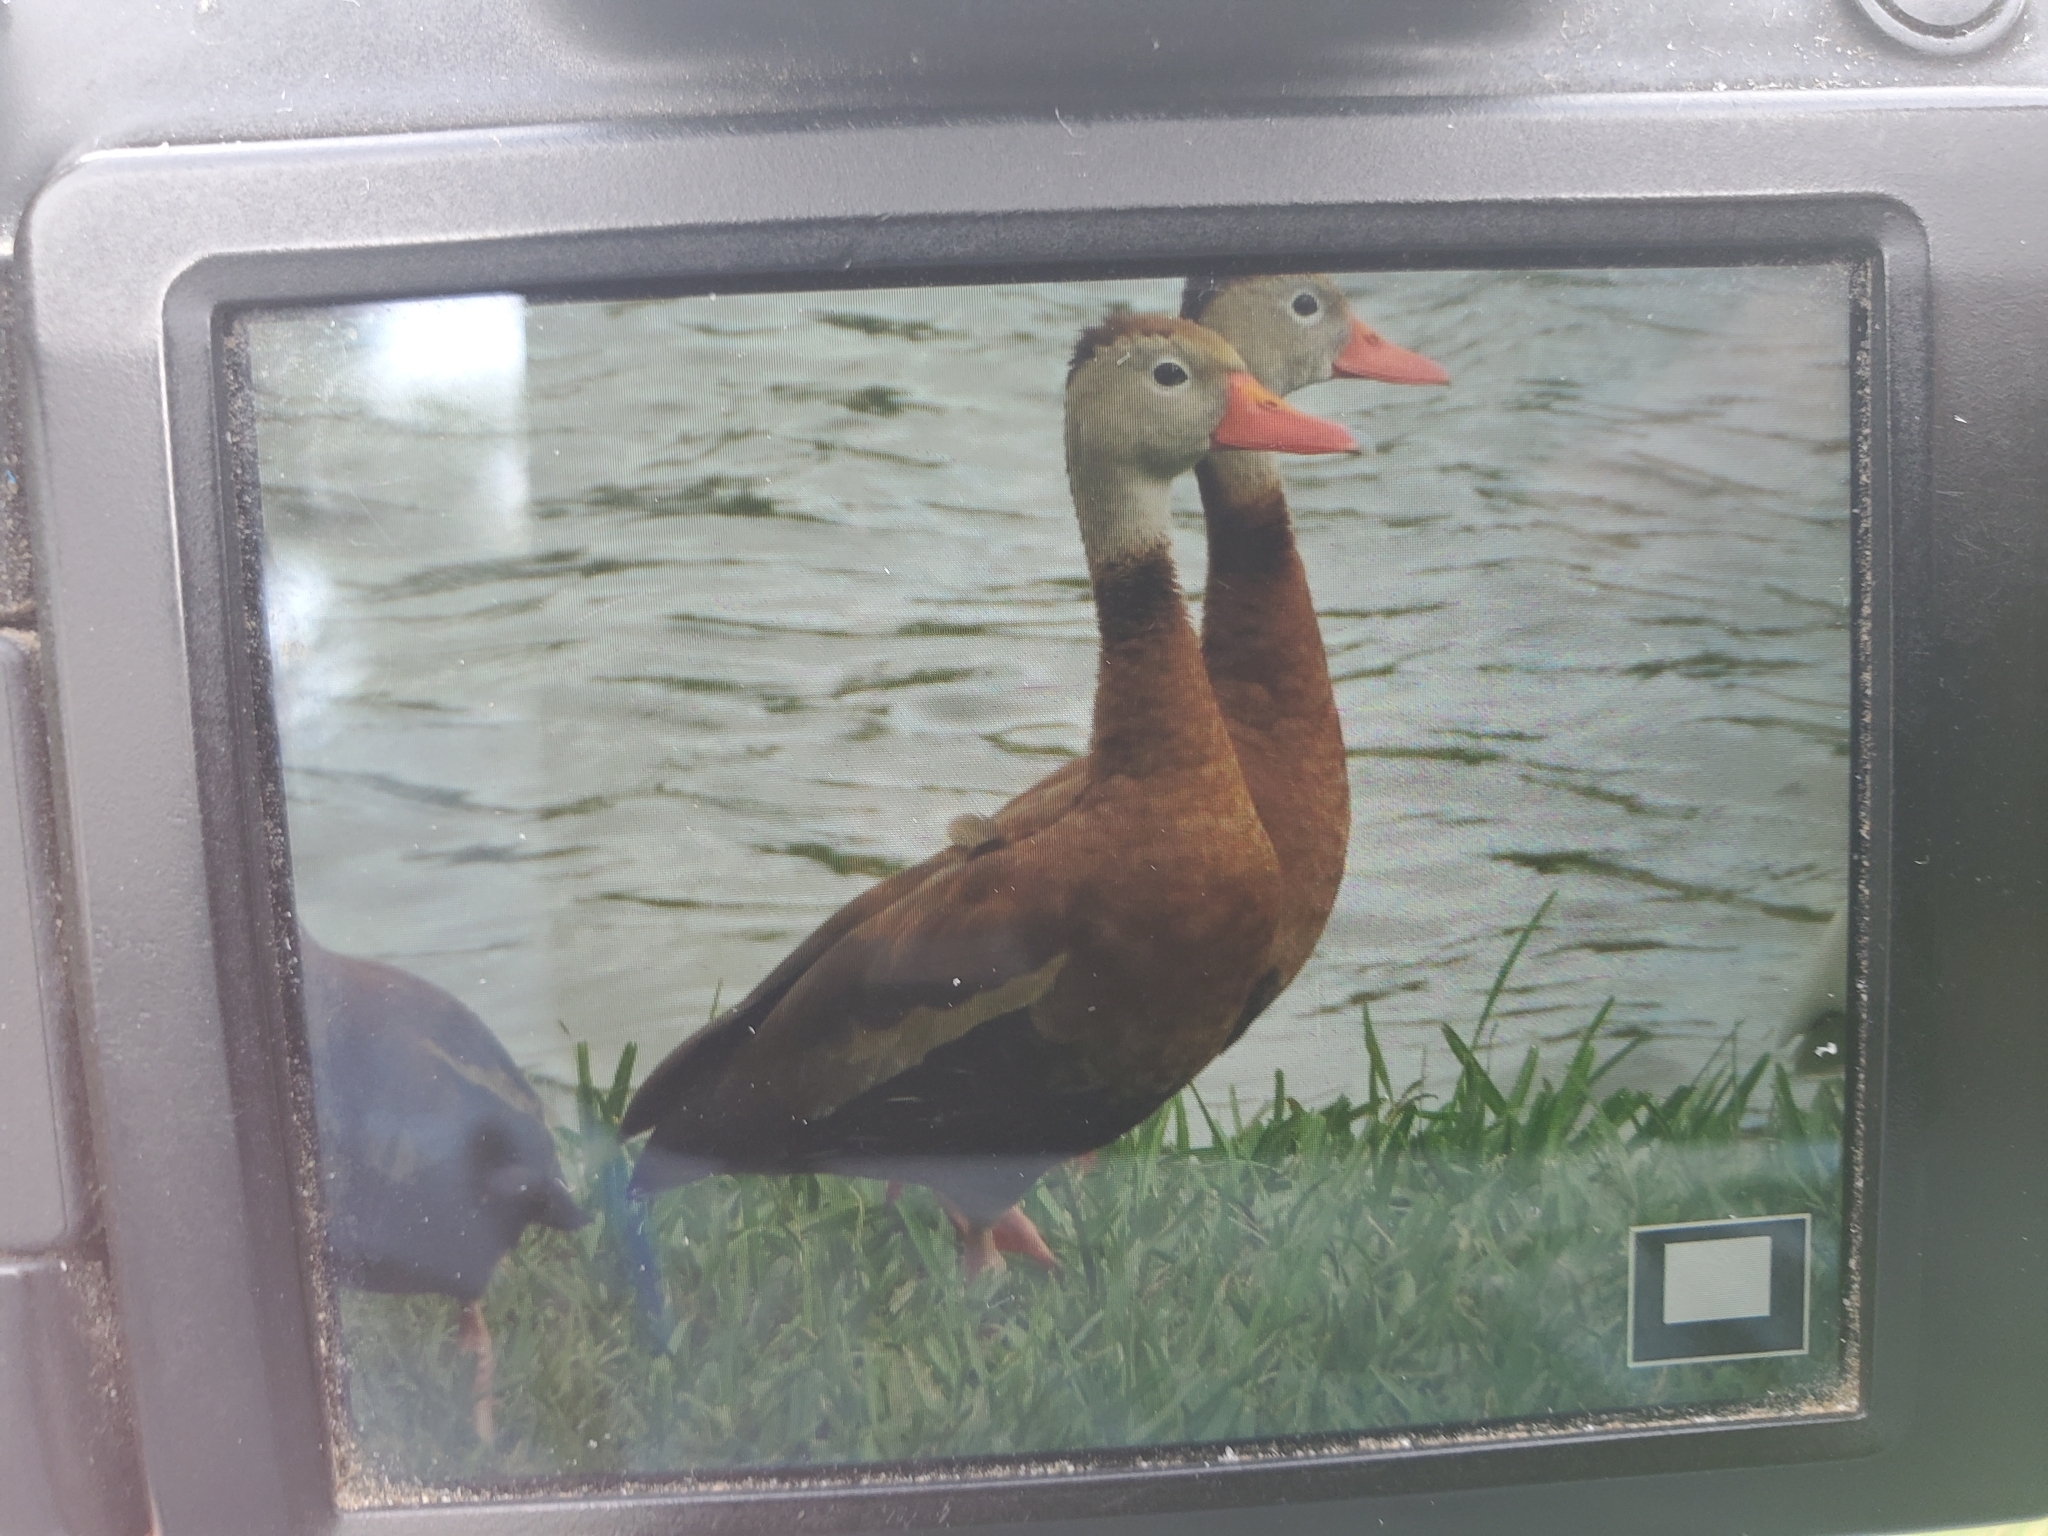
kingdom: Animalia
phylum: Chordata
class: Aves
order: Anseriformes
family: Anatidae
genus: Dendrocygna
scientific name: Dendrocygna autumnalis
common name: Black-bellied whistling duck
